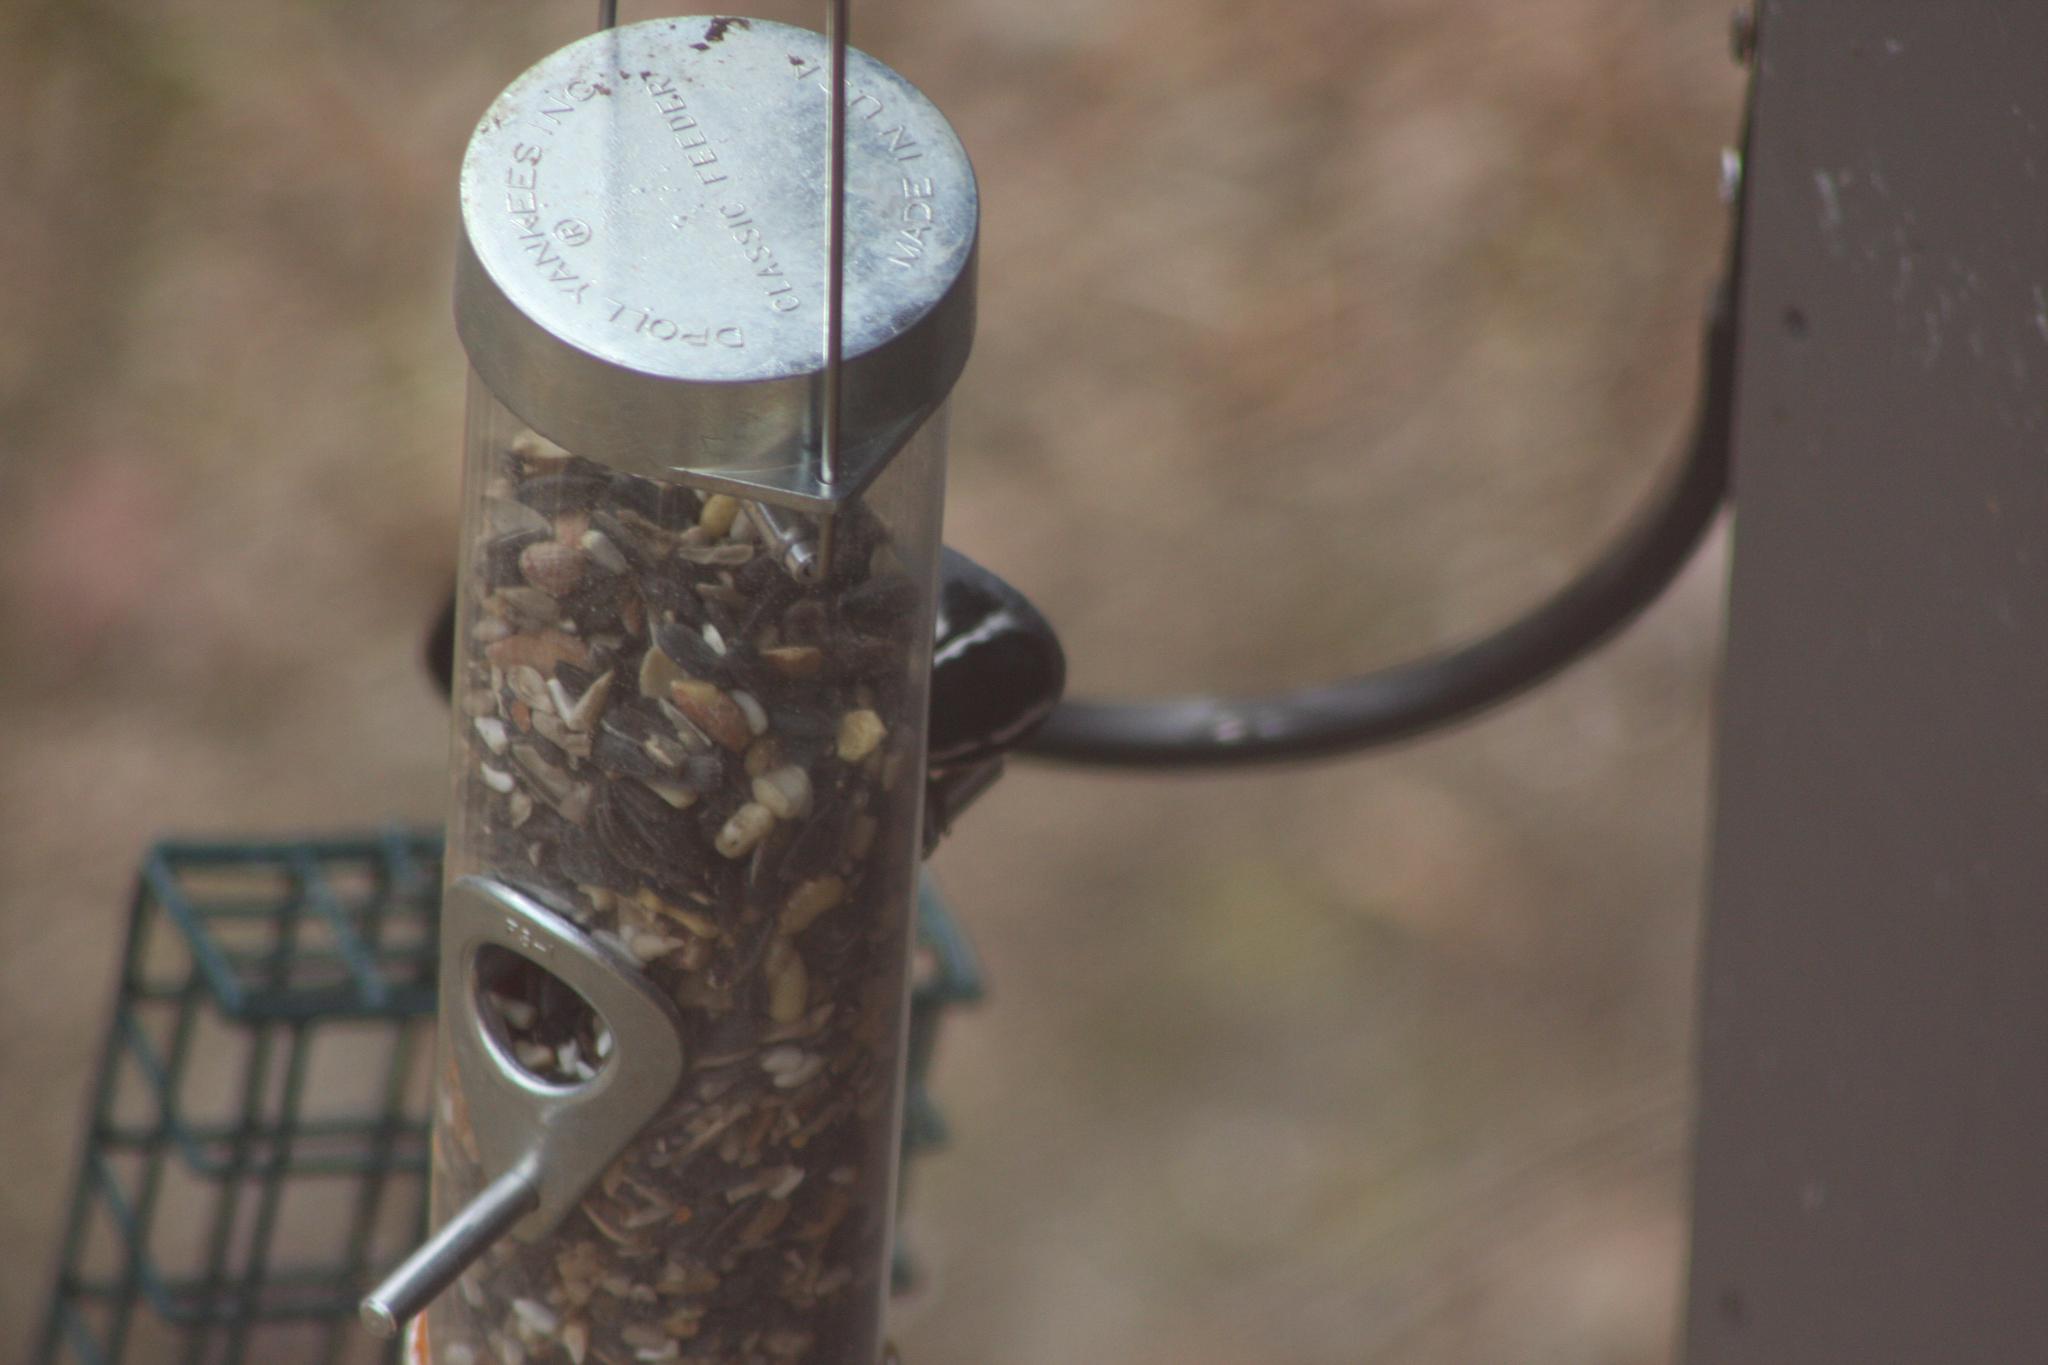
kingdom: Animalia
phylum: Chordata
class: Aves
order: Passeriformes
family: Sittidae
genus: Sitta
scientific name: Sitta canadensis
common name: Red-breasted nuthatch
